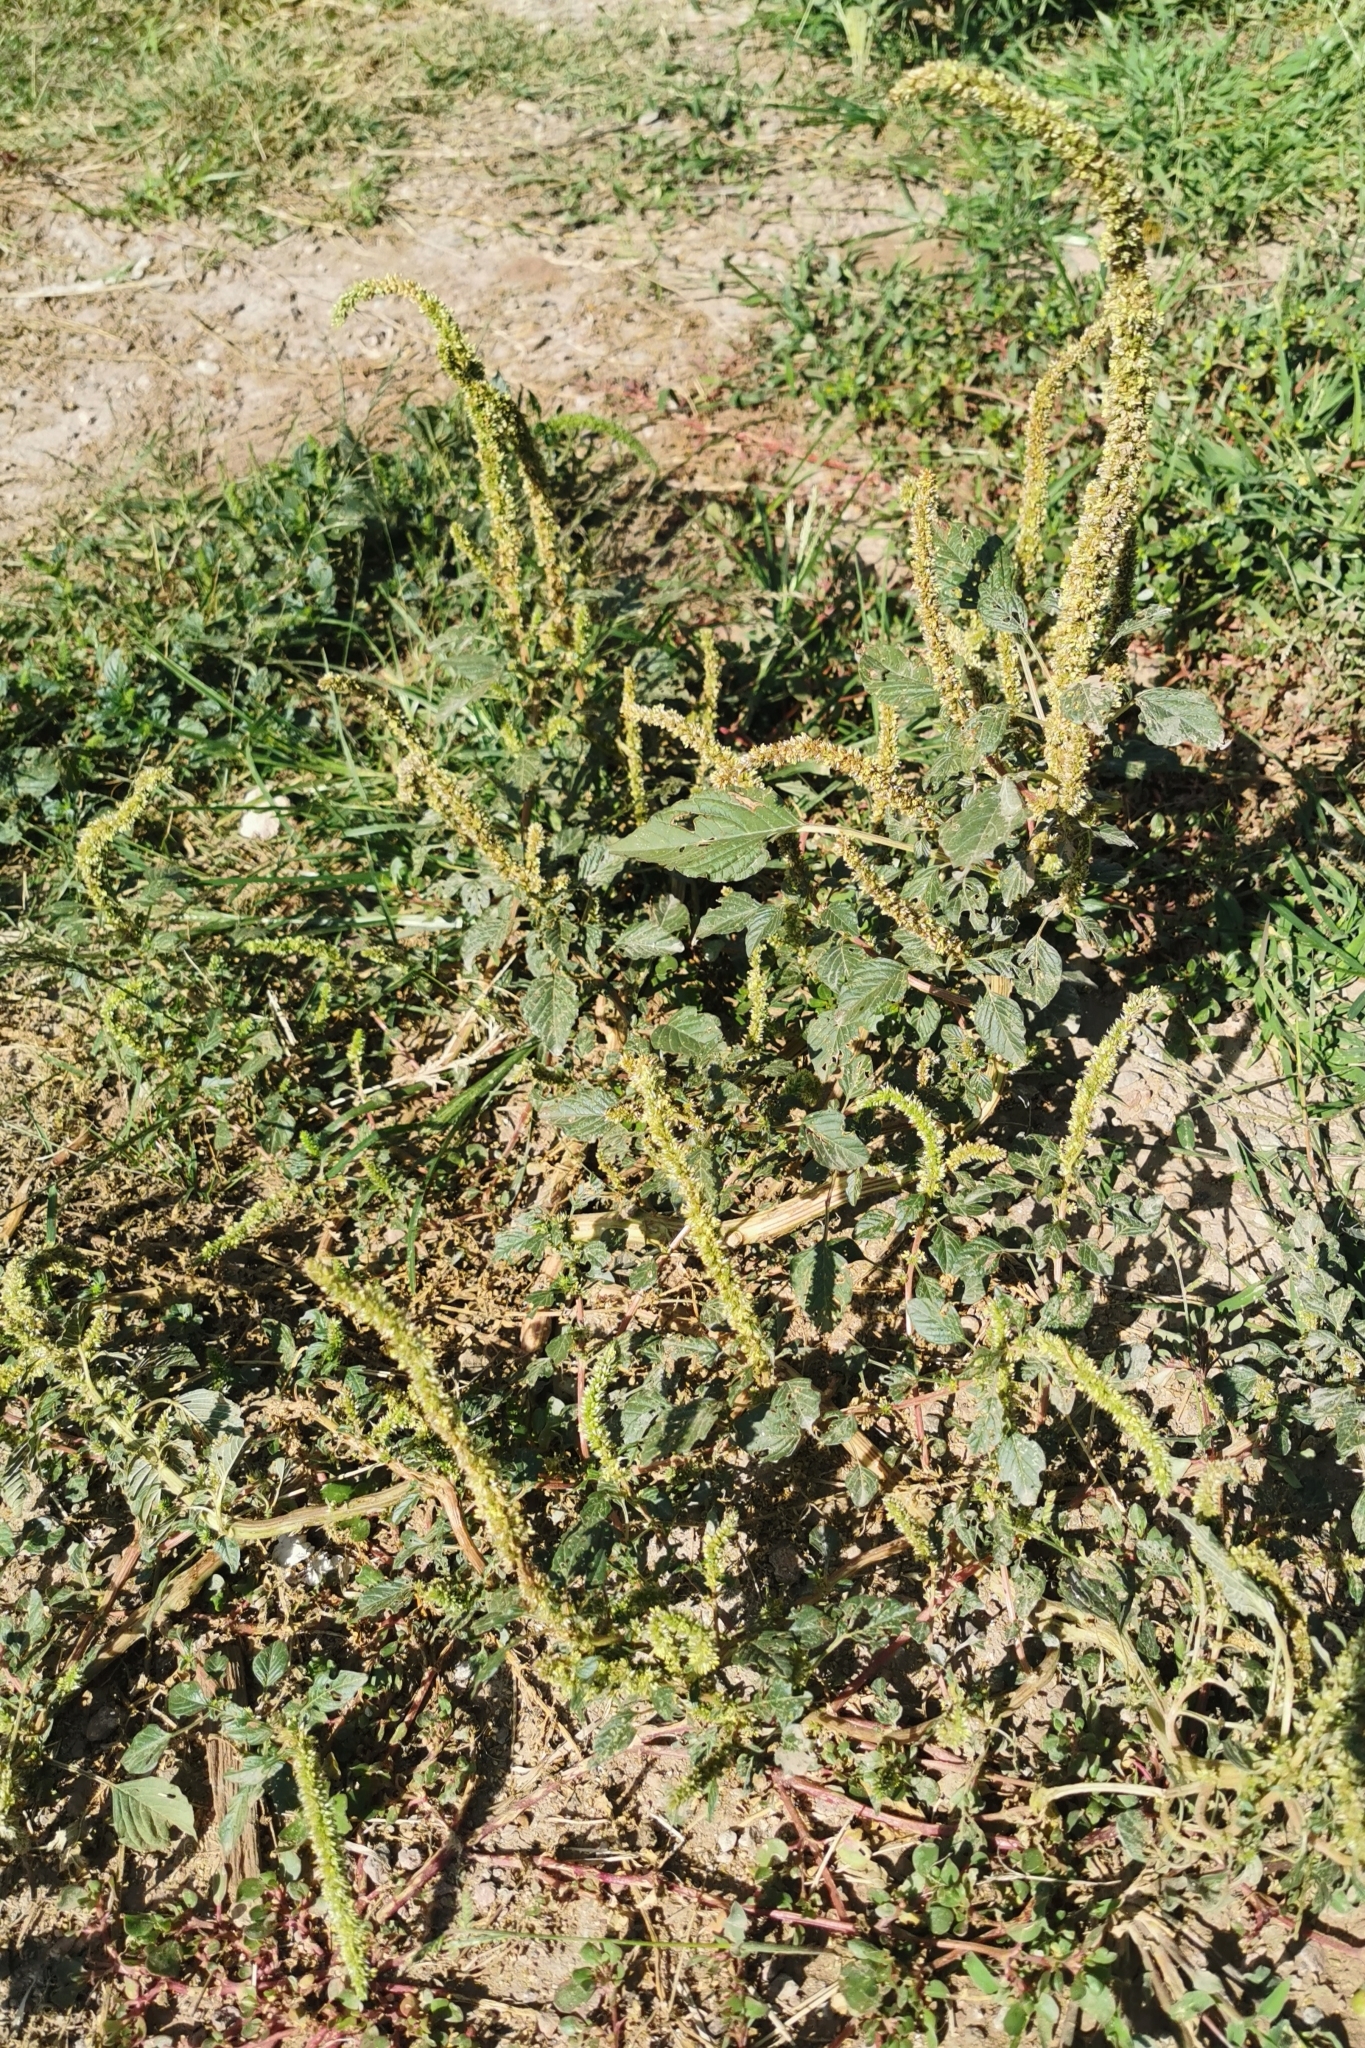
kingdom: Plantae
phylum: Tracheophyta
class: Magnoliopsida
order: Caryophyllales
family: Amaranthaceae
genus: Amaranthus
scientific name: Amaranthus hybridus
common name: Green amaranth
